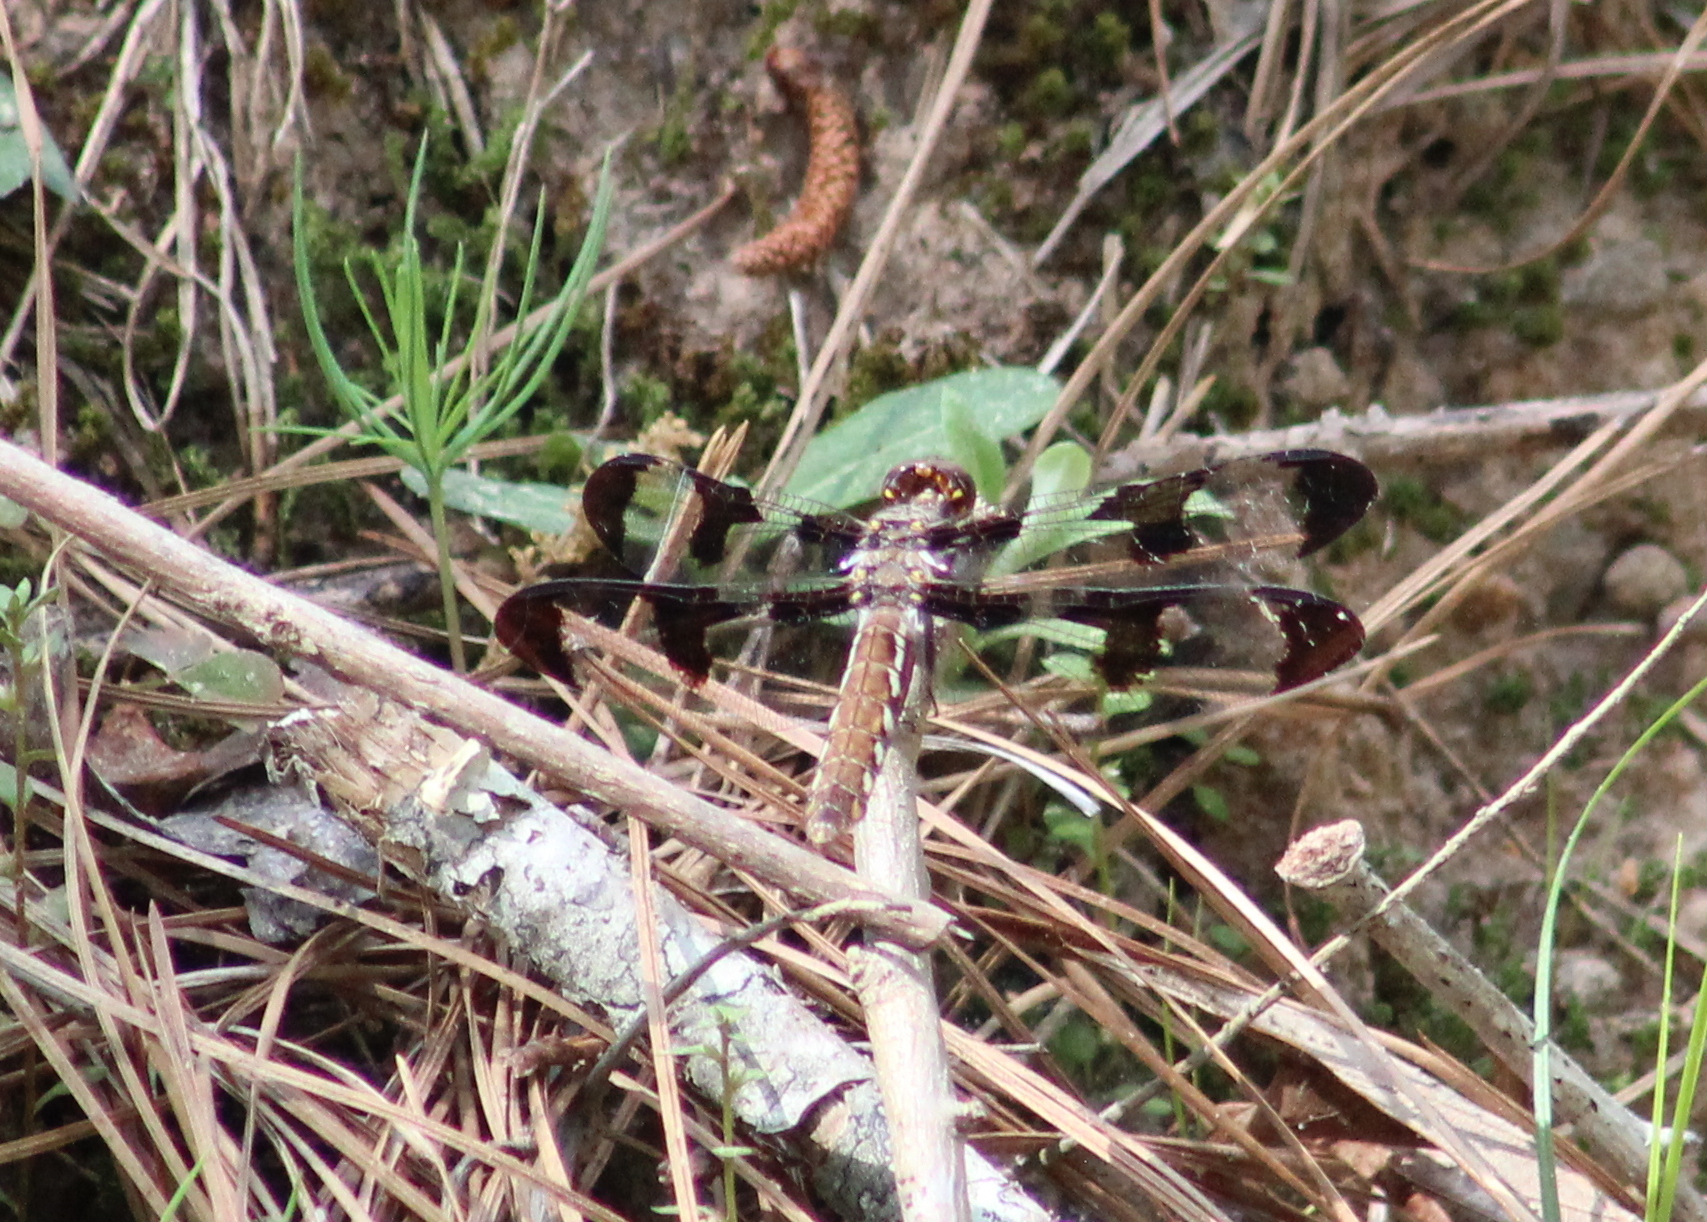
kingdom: Animalia
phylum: Arthropoda
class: Insecta
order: Odonata
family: Libellulidae
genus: Plathemis
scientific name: Plathemis lydia
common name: Common whitetail
